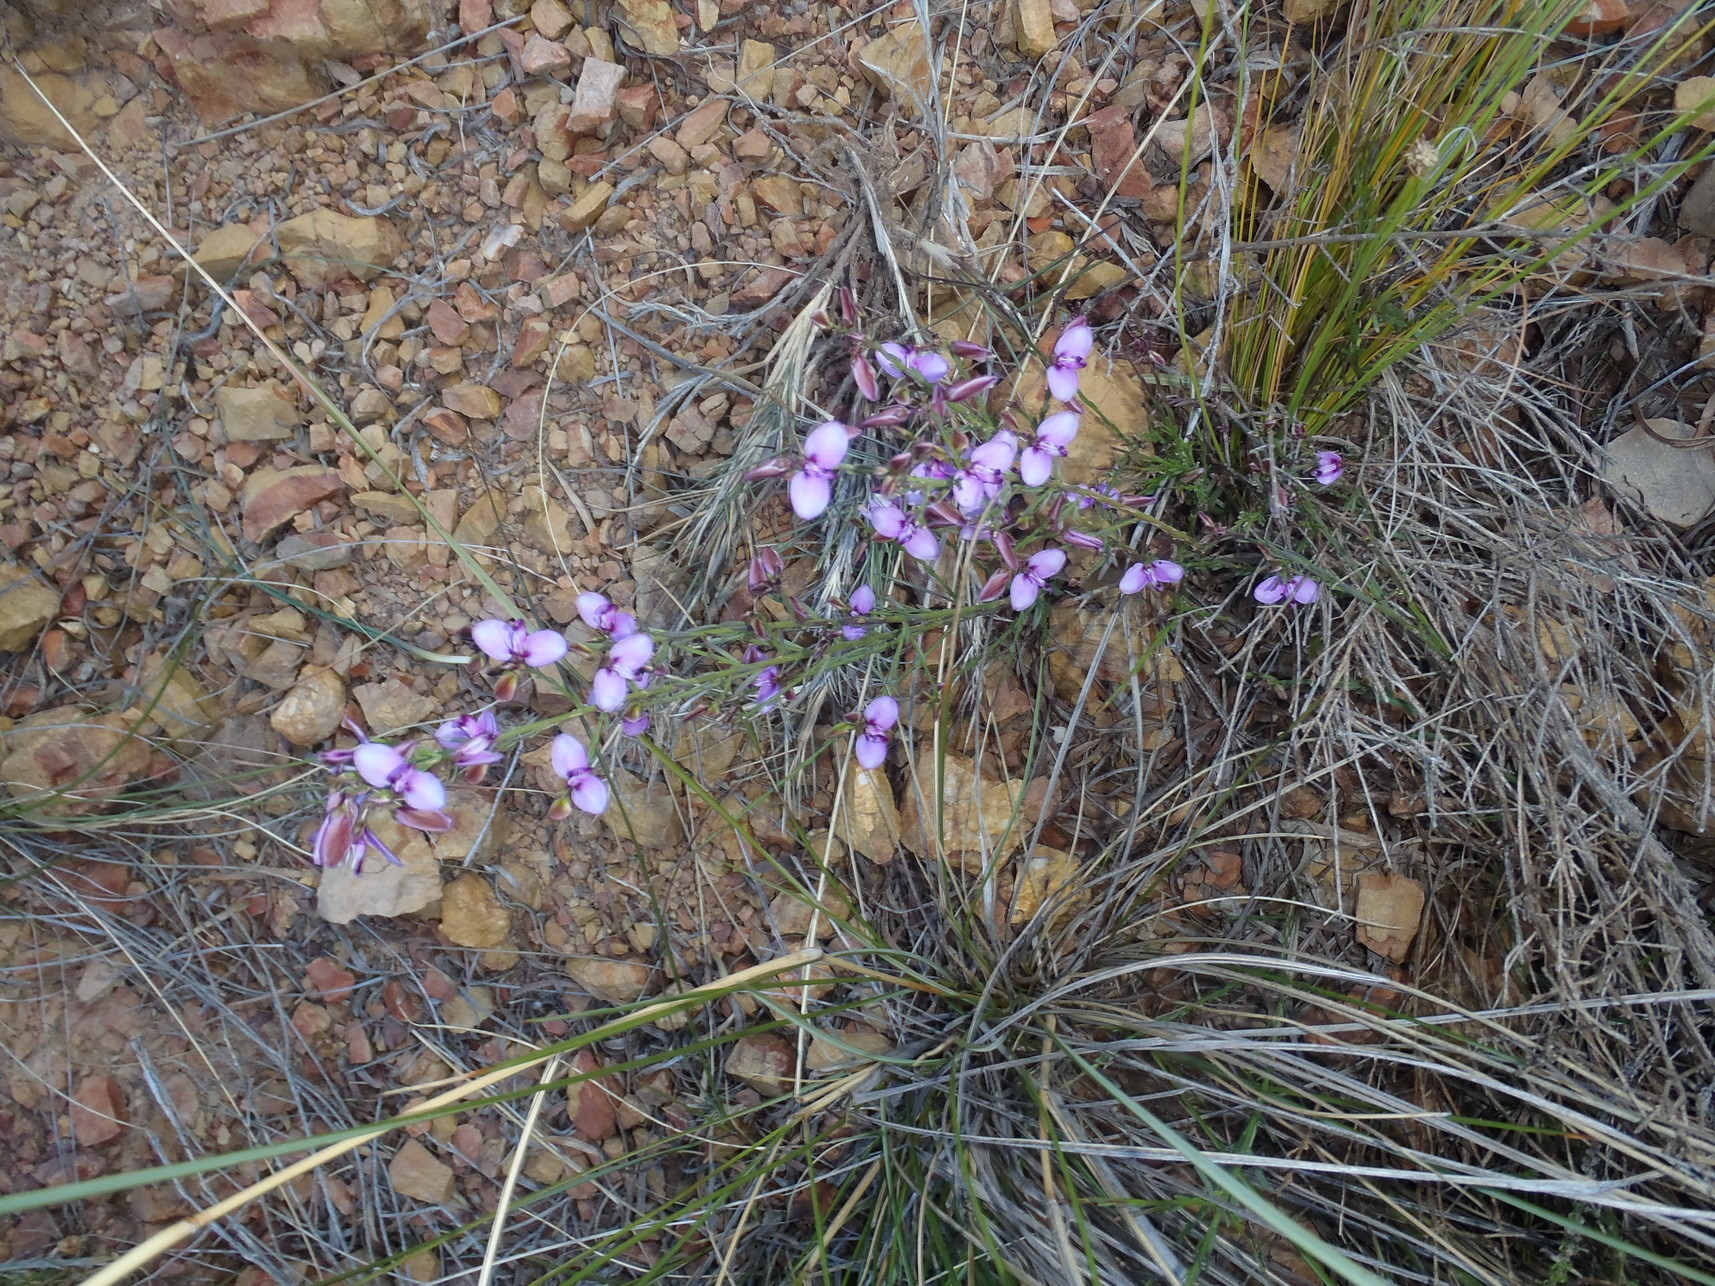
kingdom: Plantae
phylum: Tracheophyta
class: Magnoliopsida
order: Fabales
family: Polygalaceae
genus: Polygala
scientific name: Polygala microlopha
